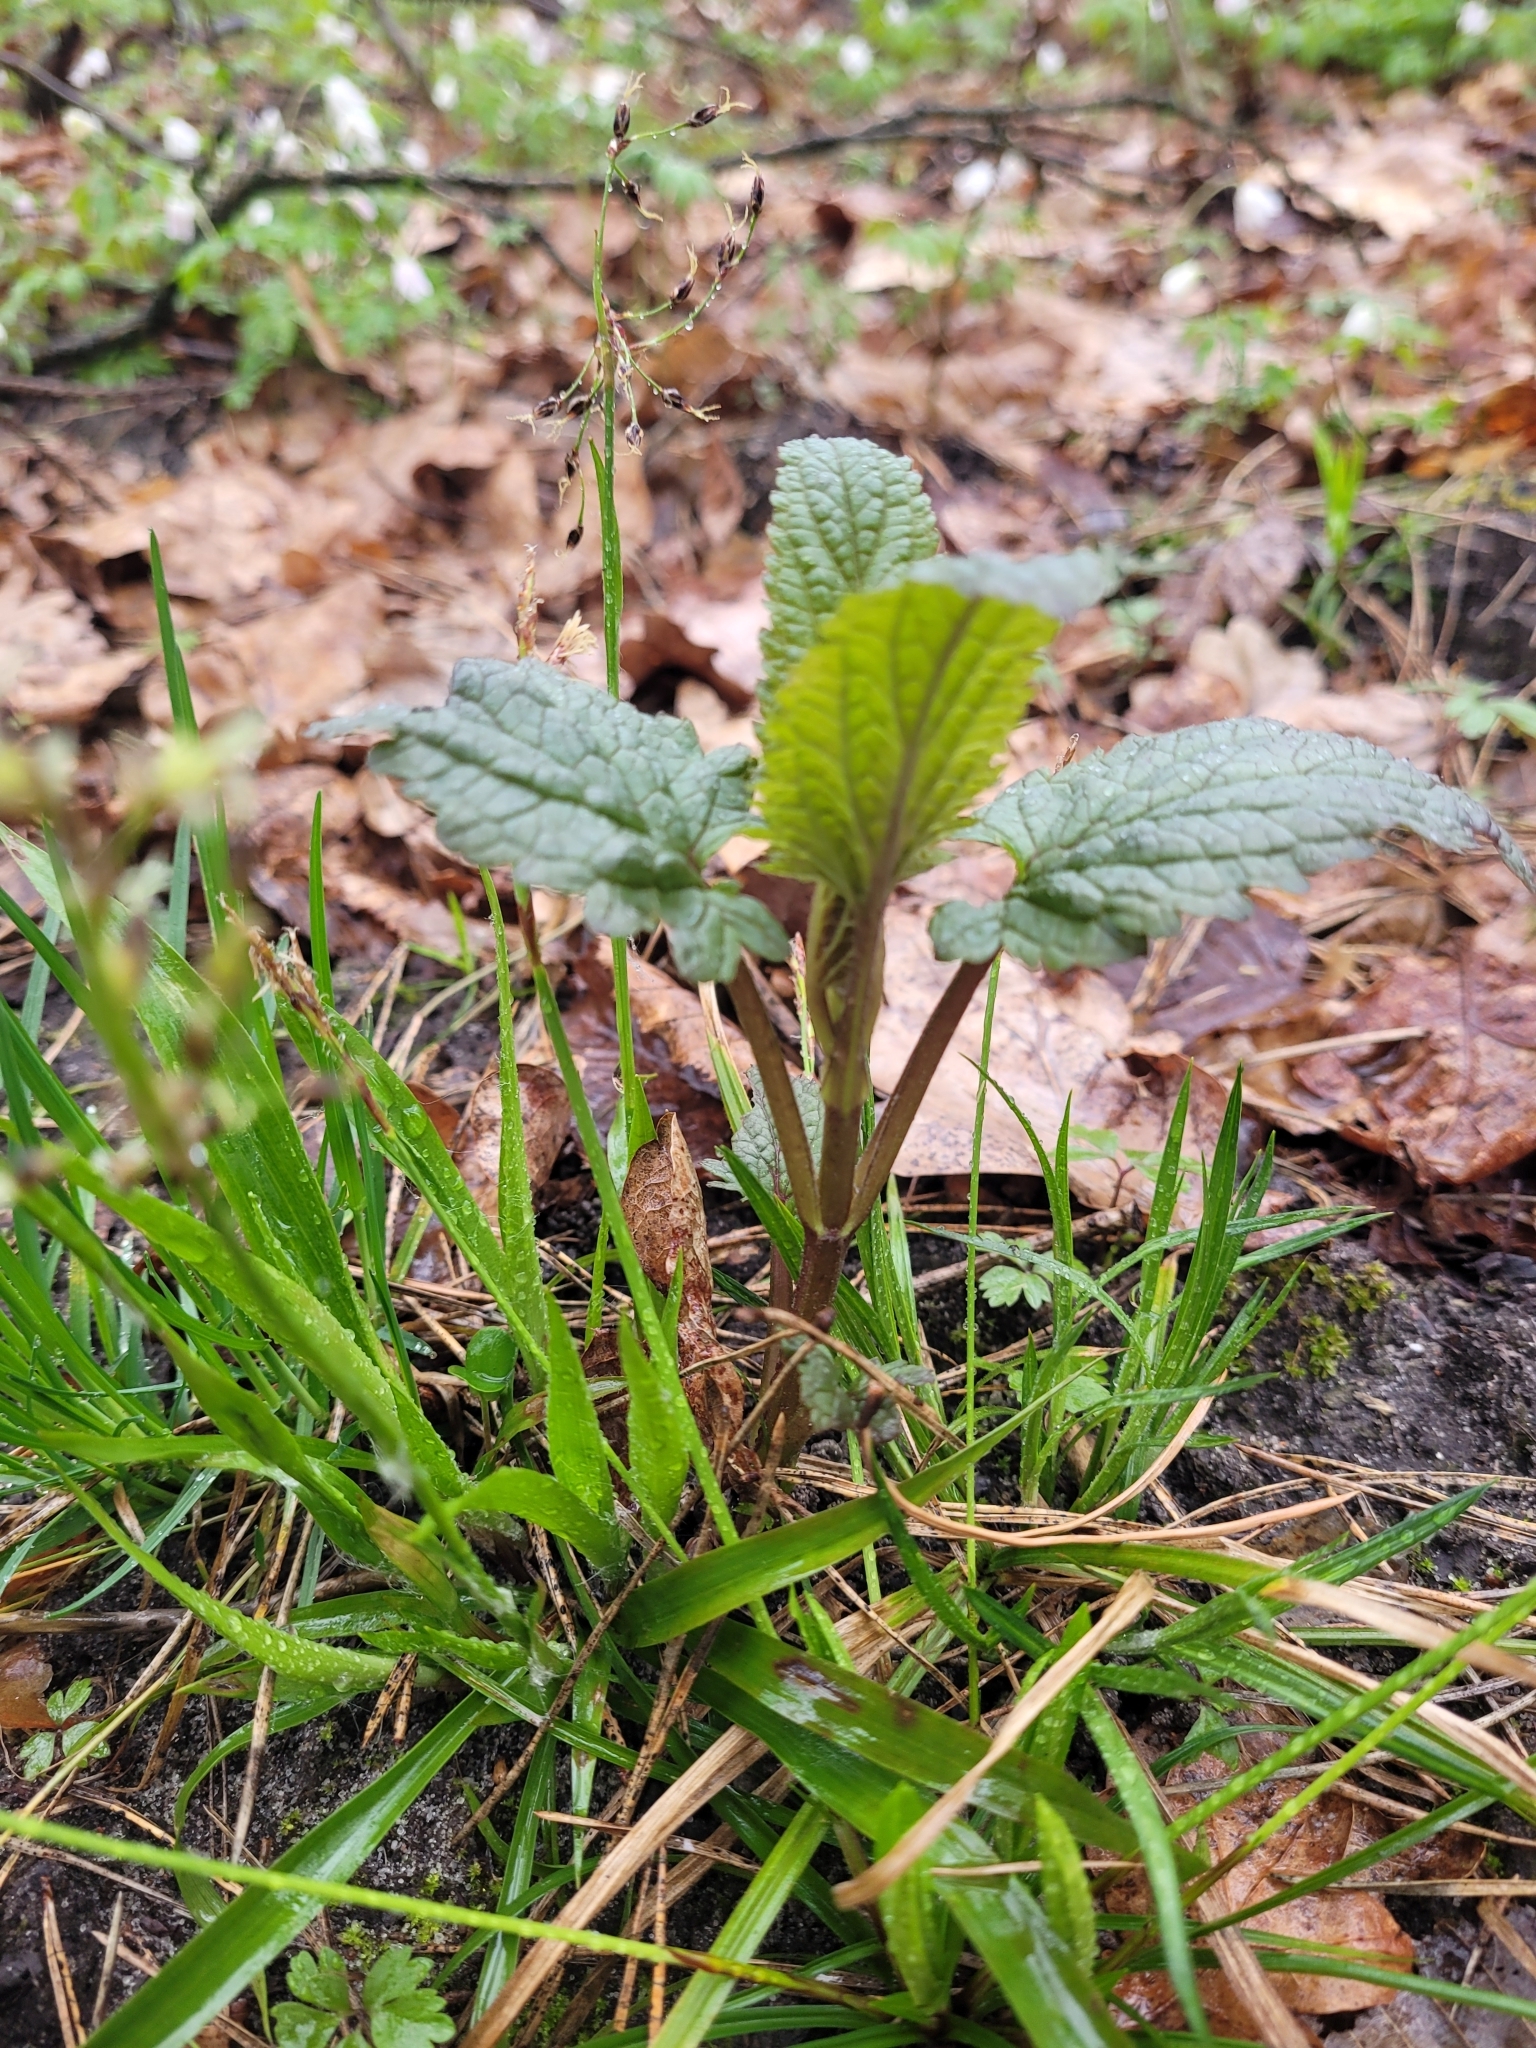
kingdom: Plantae
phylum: Tracheophyta
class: Magnoliopsida
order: Lamiales
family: Scrophulariaceae
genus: Scrophularia
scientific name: Scrophularia nodosa
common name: Common figwort
